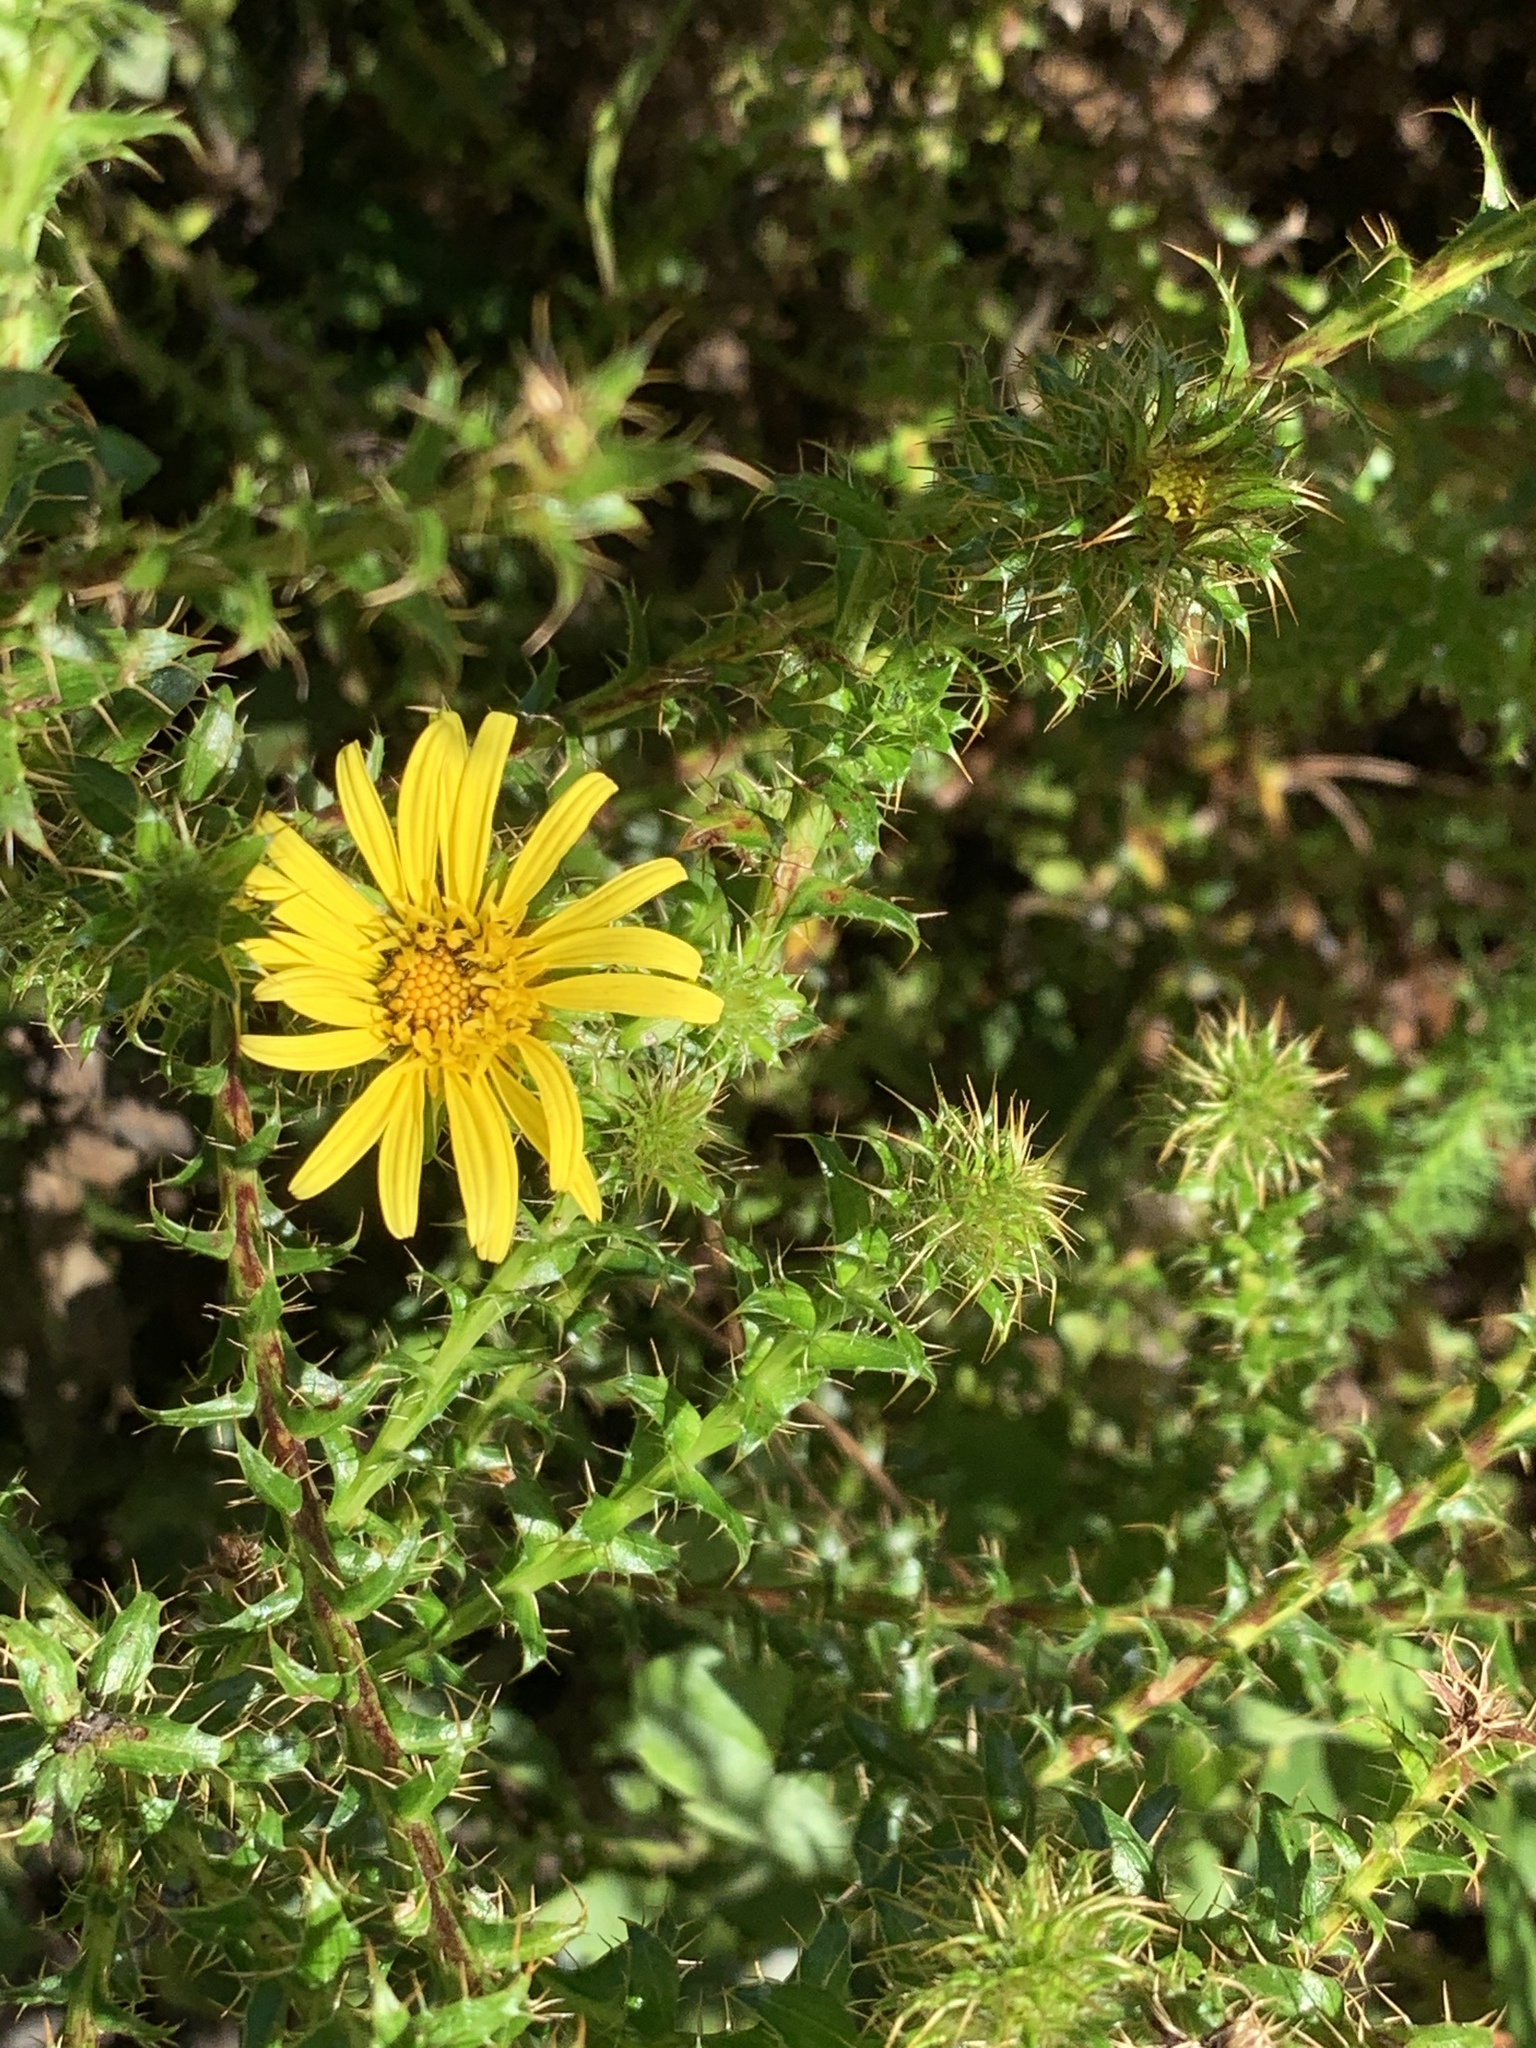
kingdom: Plantae
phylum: Tracheophyta
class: Magnoliopsida
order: Asterales
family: Asteraceae
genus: Cullumia
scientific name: Cullumia setosa
